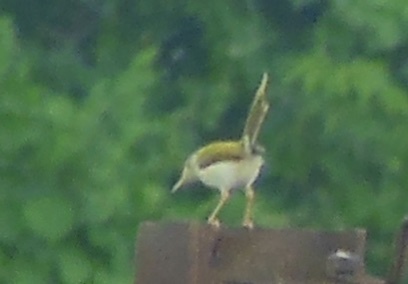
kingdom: Animalia
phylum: Chordata
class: Aves
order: Passeriformes
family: Cisticolidae
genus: Orthotomus
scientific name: Orthotomus sutorius
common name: Common tailorbird
